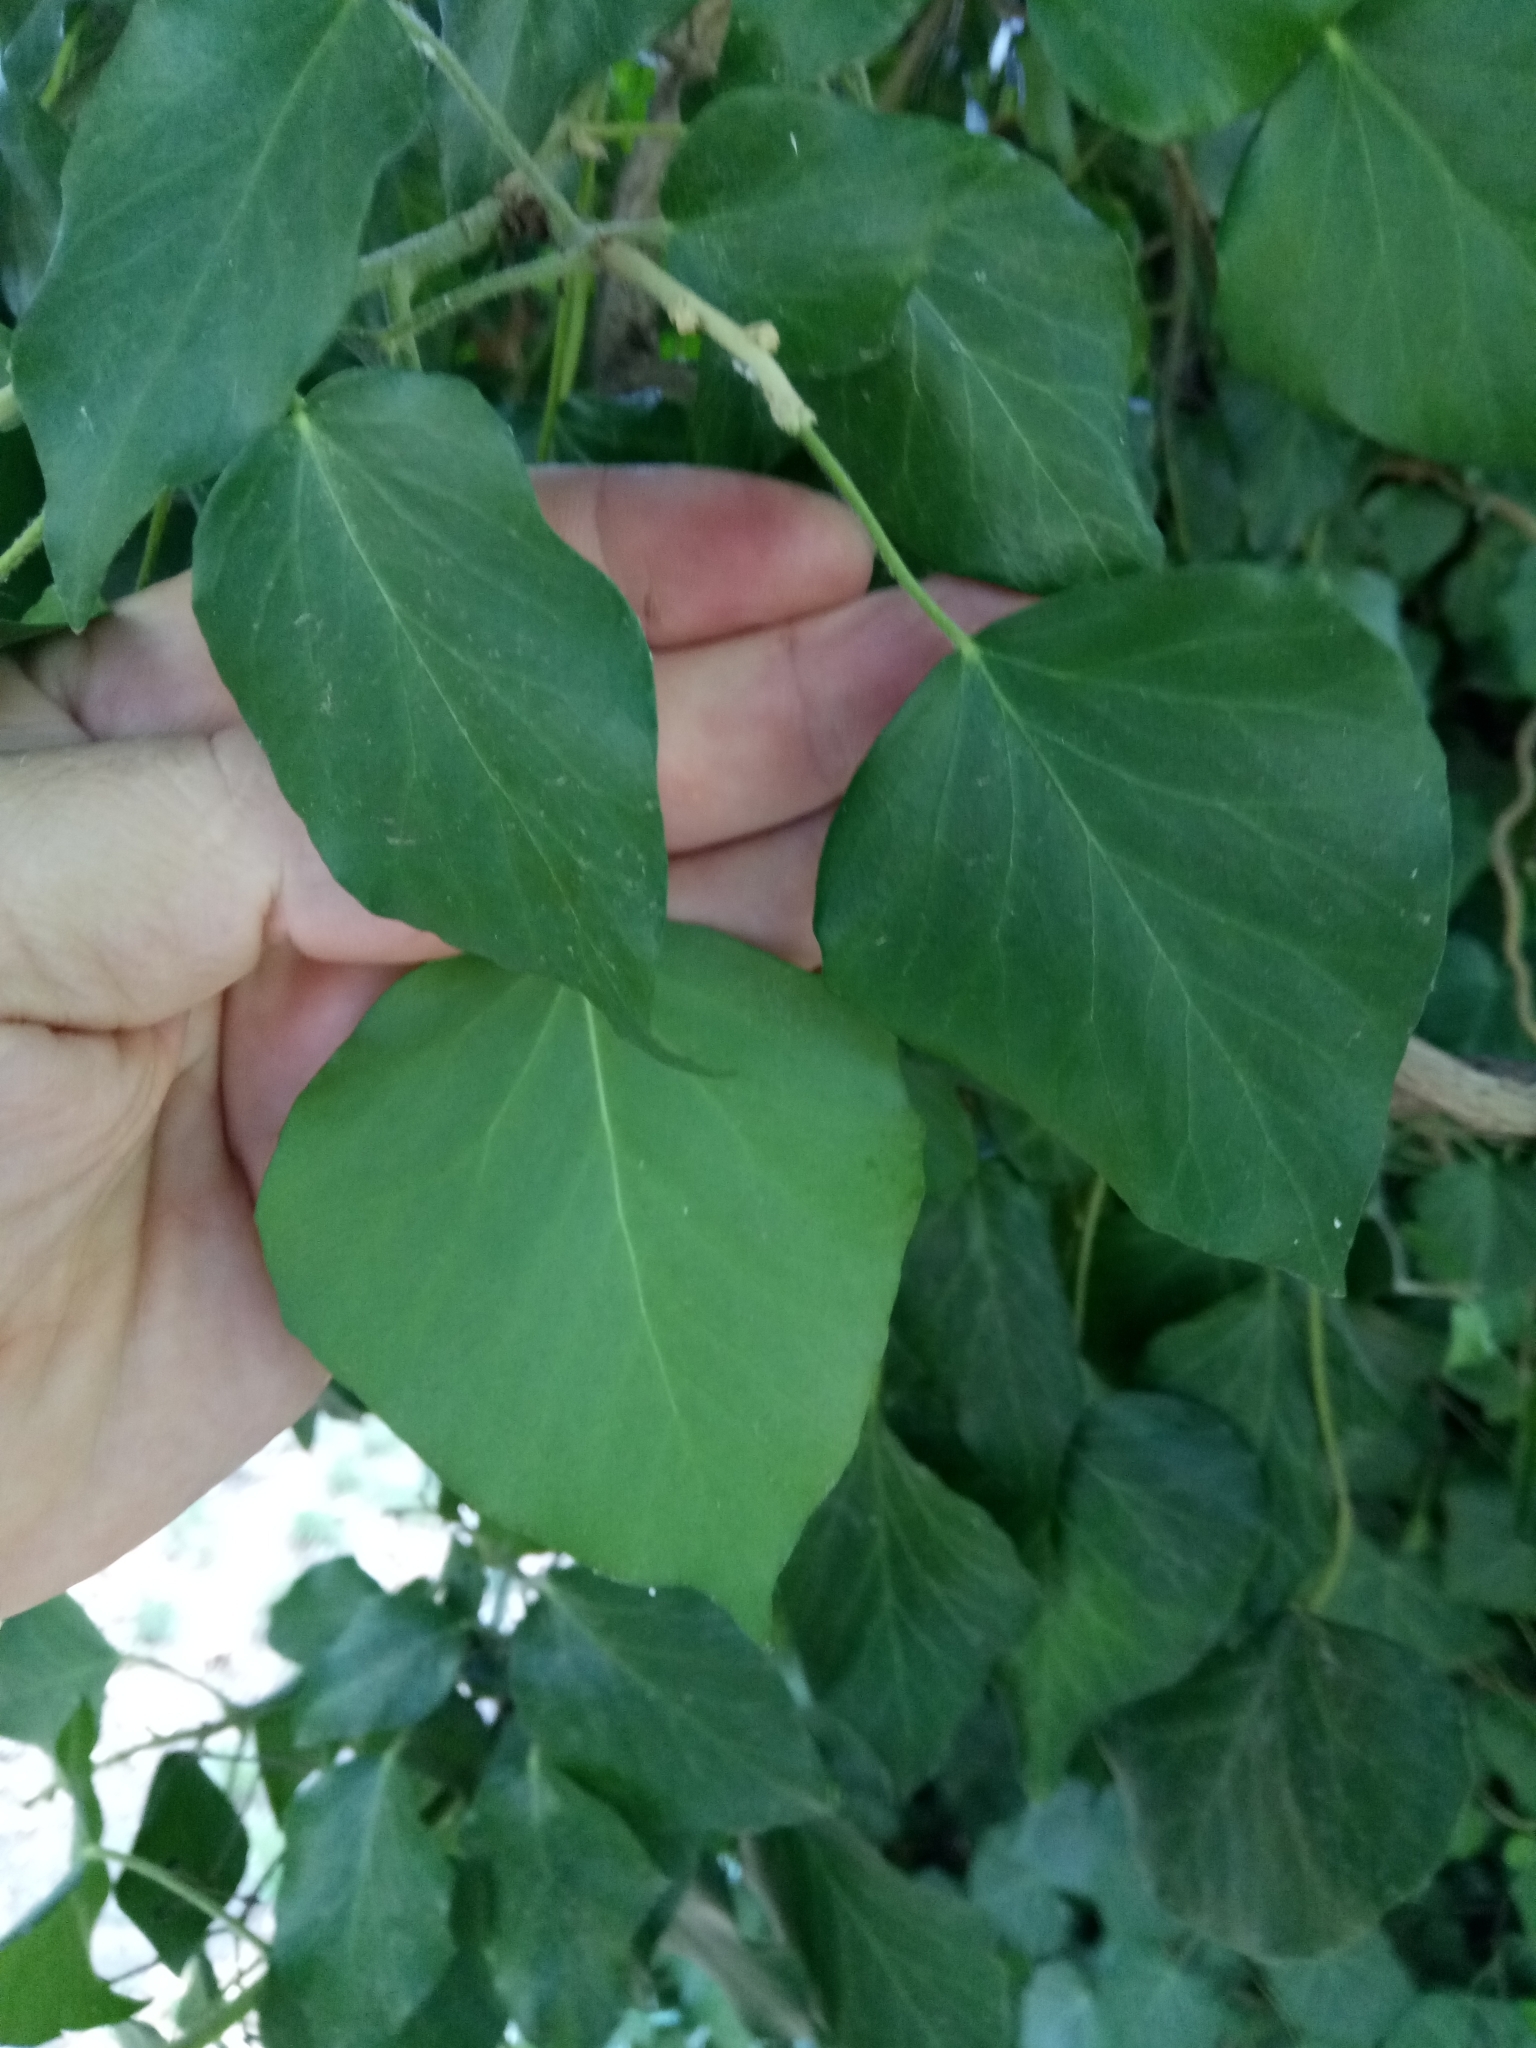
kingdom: Plantae
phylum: Tracheophyta
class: Magnoliopsida
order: Apiales
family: Araliaceae
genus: Hedera
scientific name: Hedera helix
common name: Ivy
